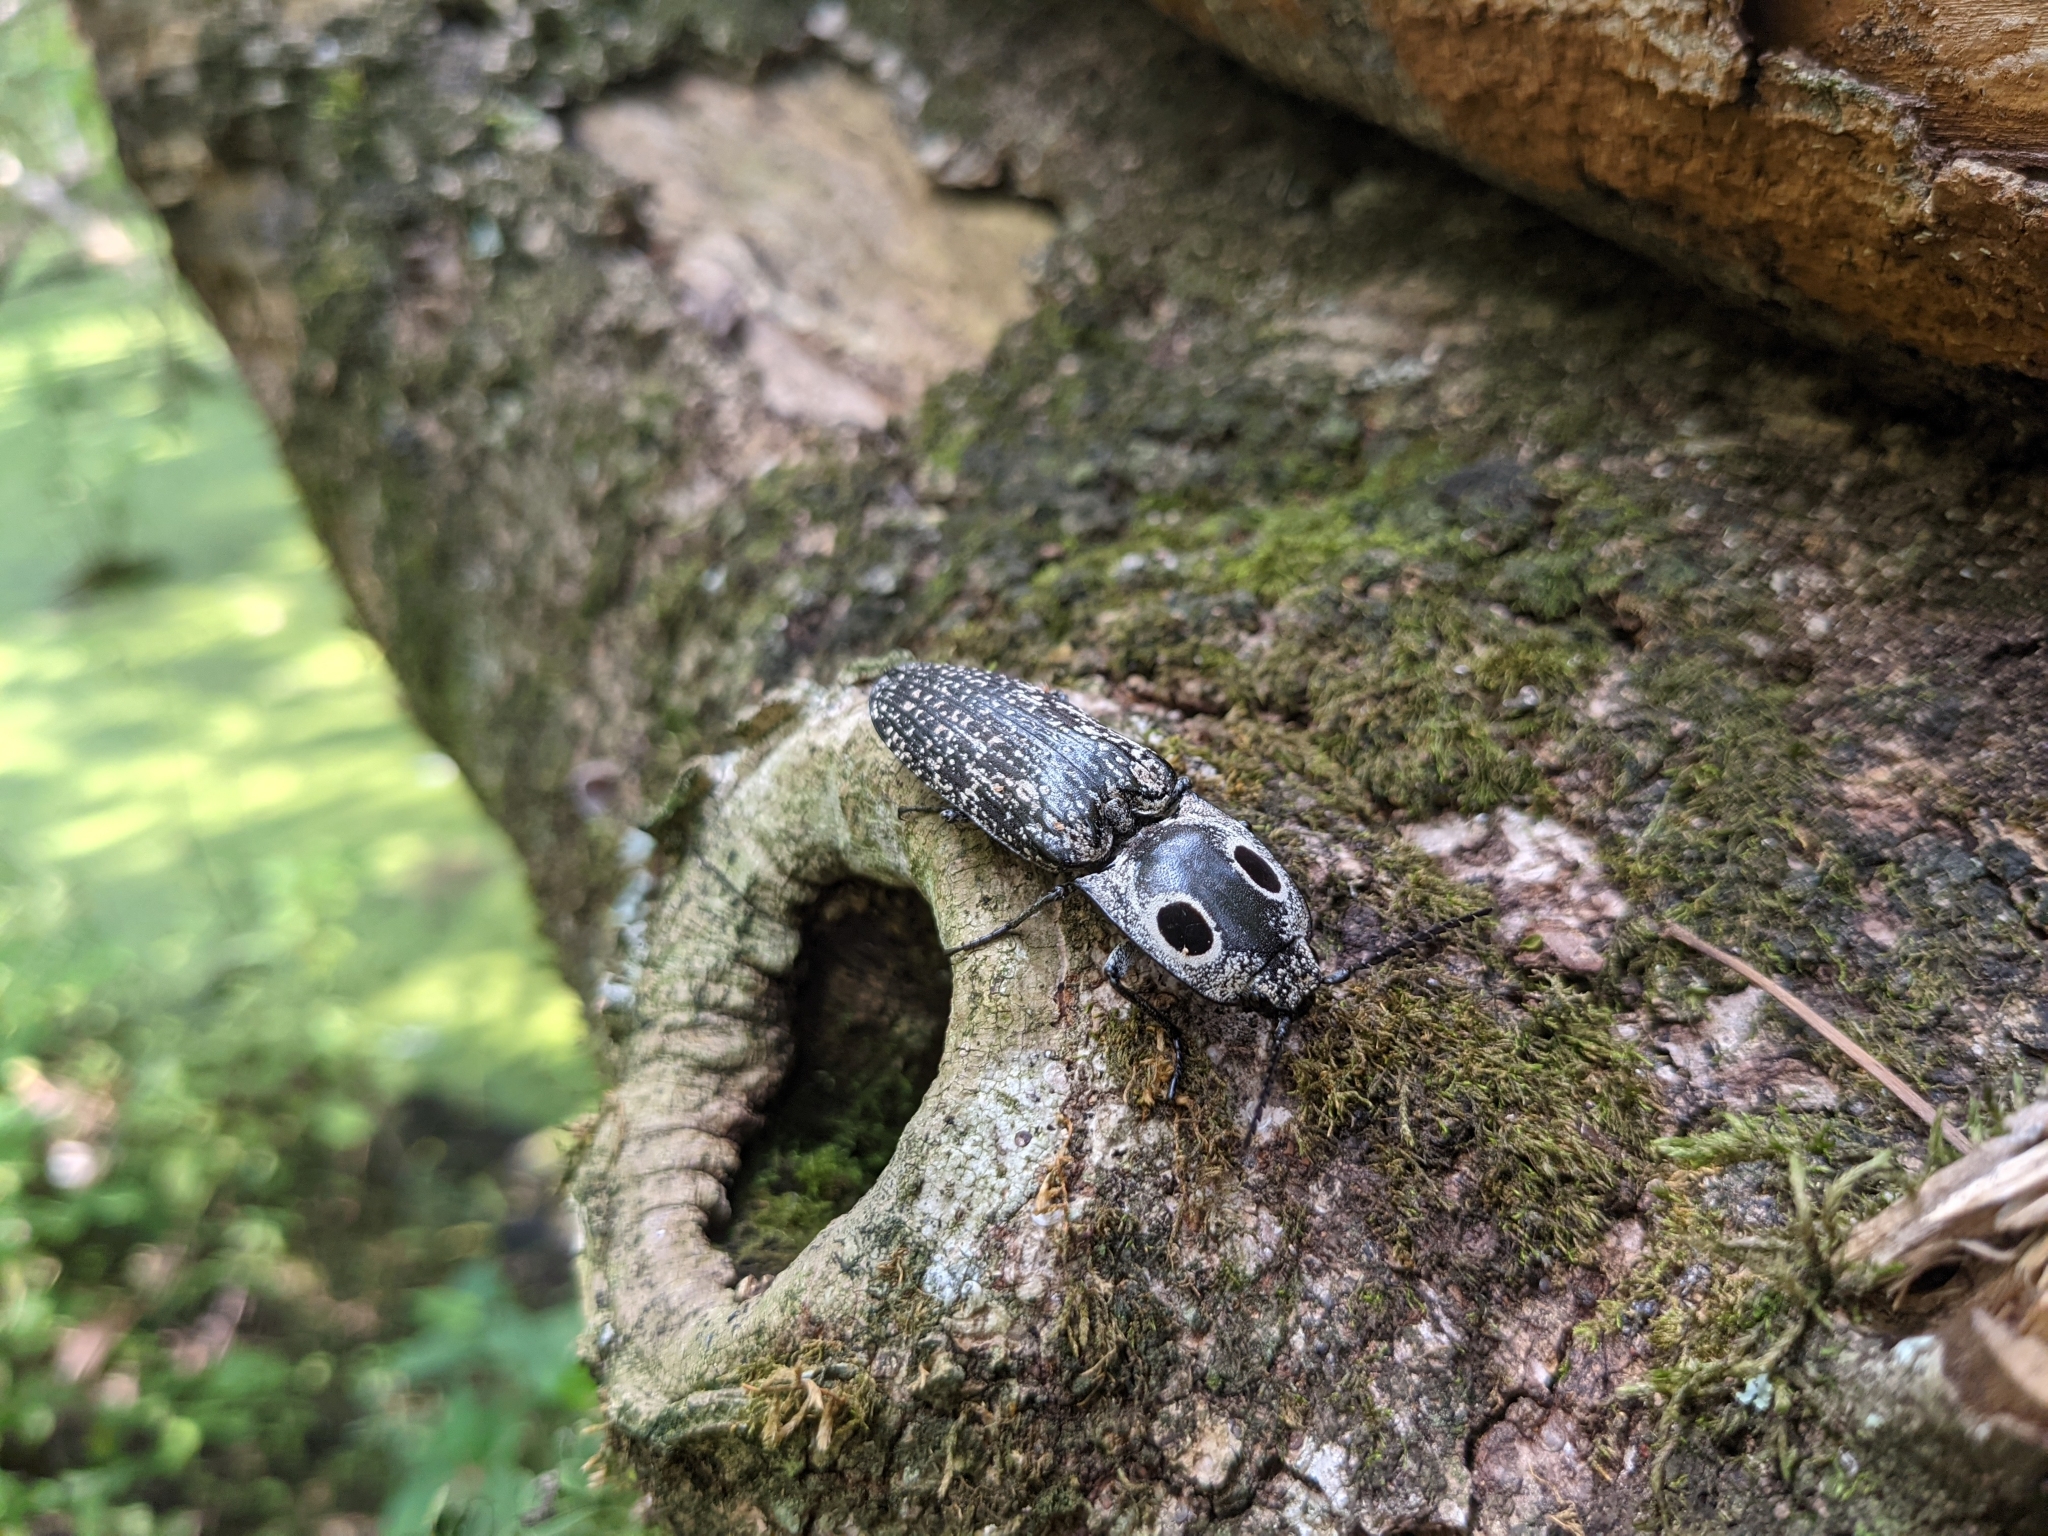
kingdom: Animalia
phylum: Arthropoda
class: Insecta
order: Coleoptera
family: Elateridae
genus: Alaus
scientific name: Alaus oculatus
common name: Eastern eyed click beetle
